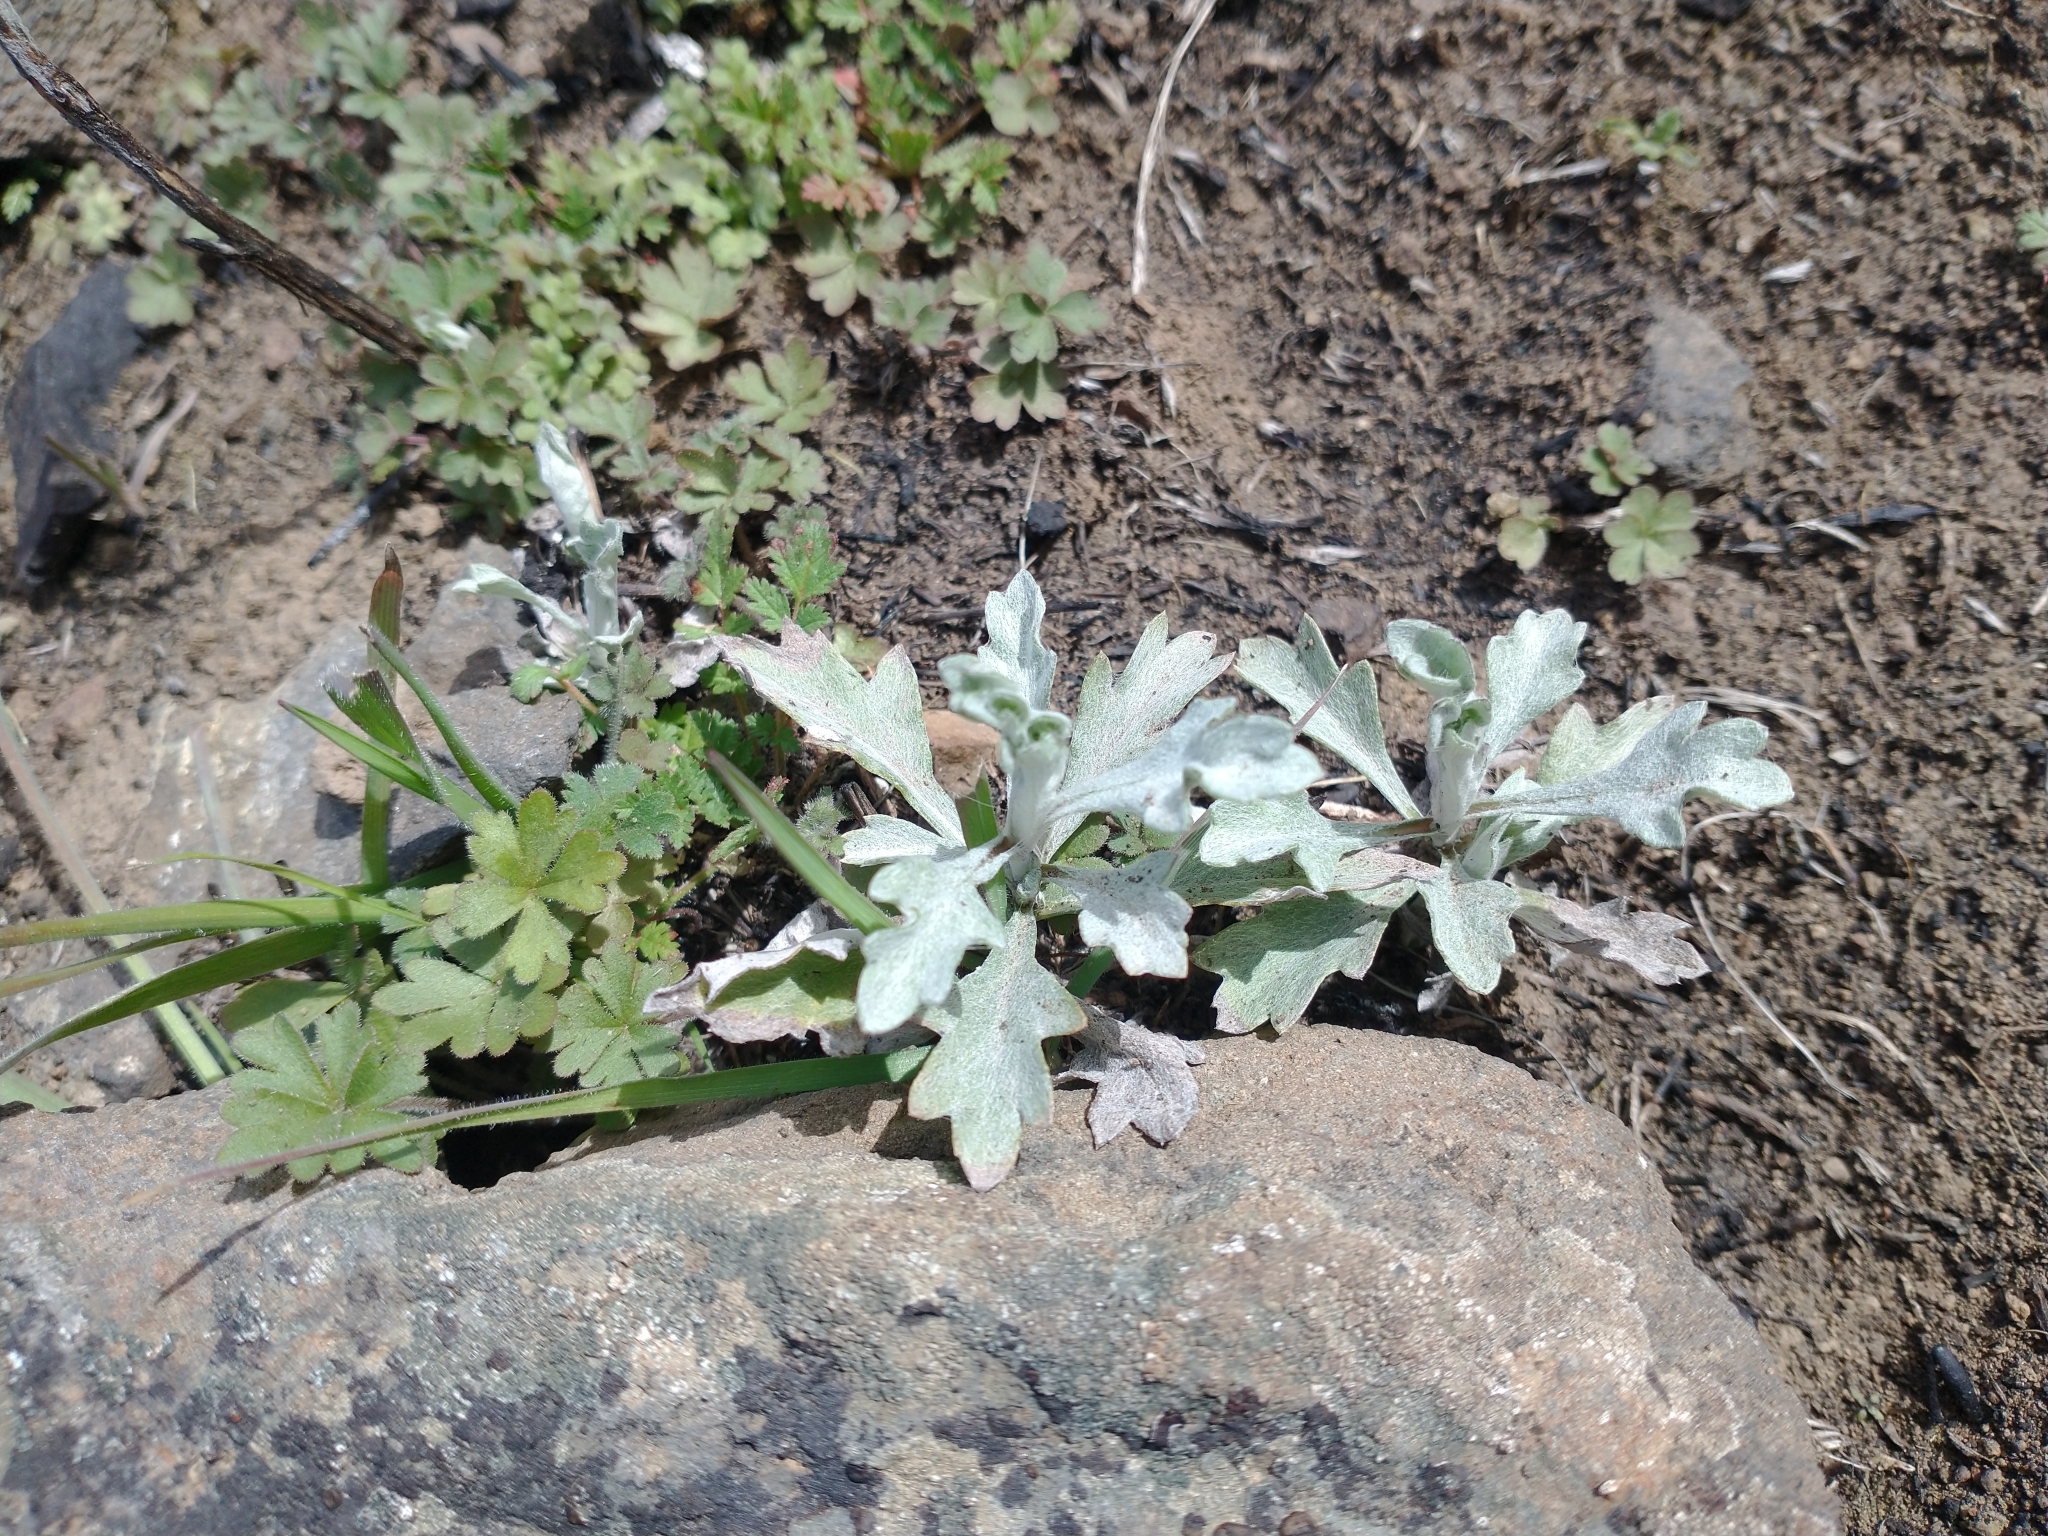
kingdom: Plantae
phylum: Tracheophyta
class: Magnoliopsida
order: Asterales
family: Asteraceae
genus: Eriophyllum
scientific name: Eriophyllum lanatum
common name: Common woolly-sunflower
